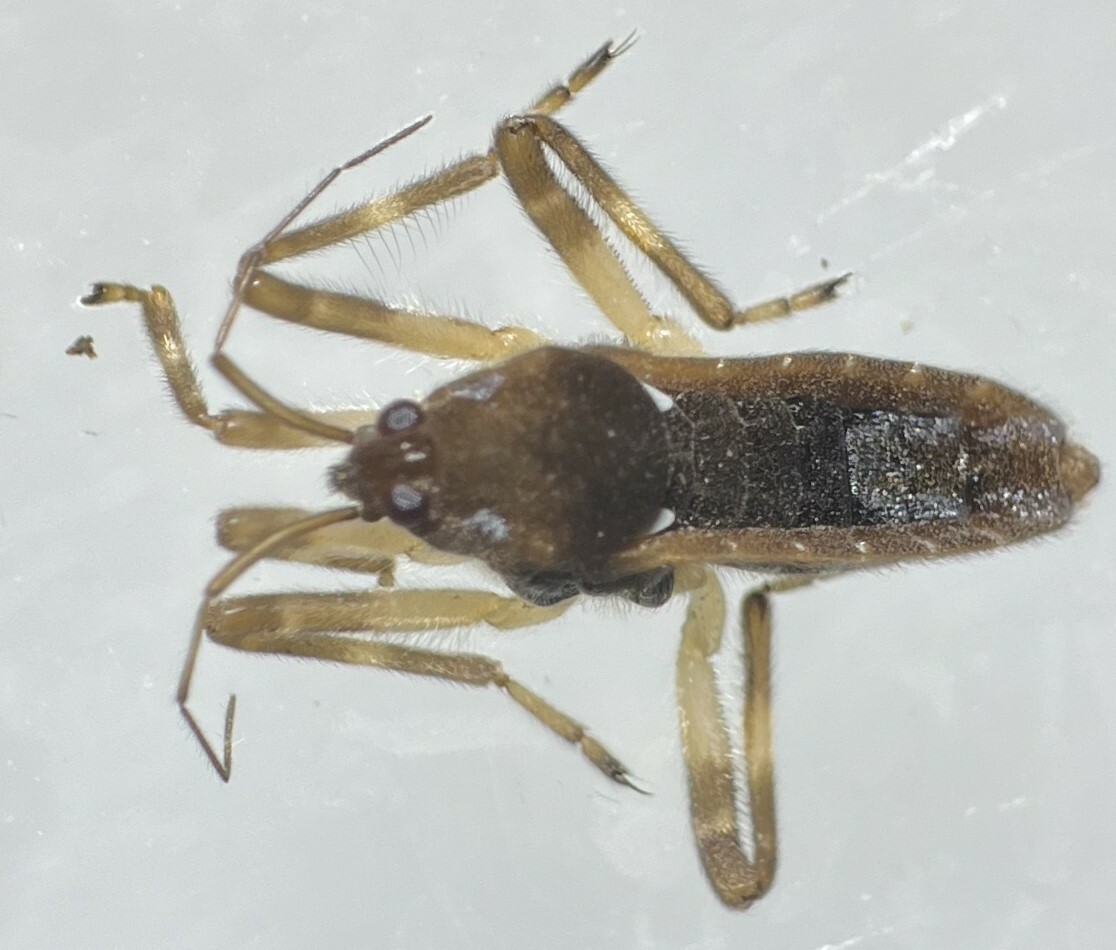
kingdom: Animalia
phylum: Arthropoda
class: Insecta
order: Hemiptera
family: Veliidae
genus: Platyvelia
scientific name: Platyvelia brachialis
